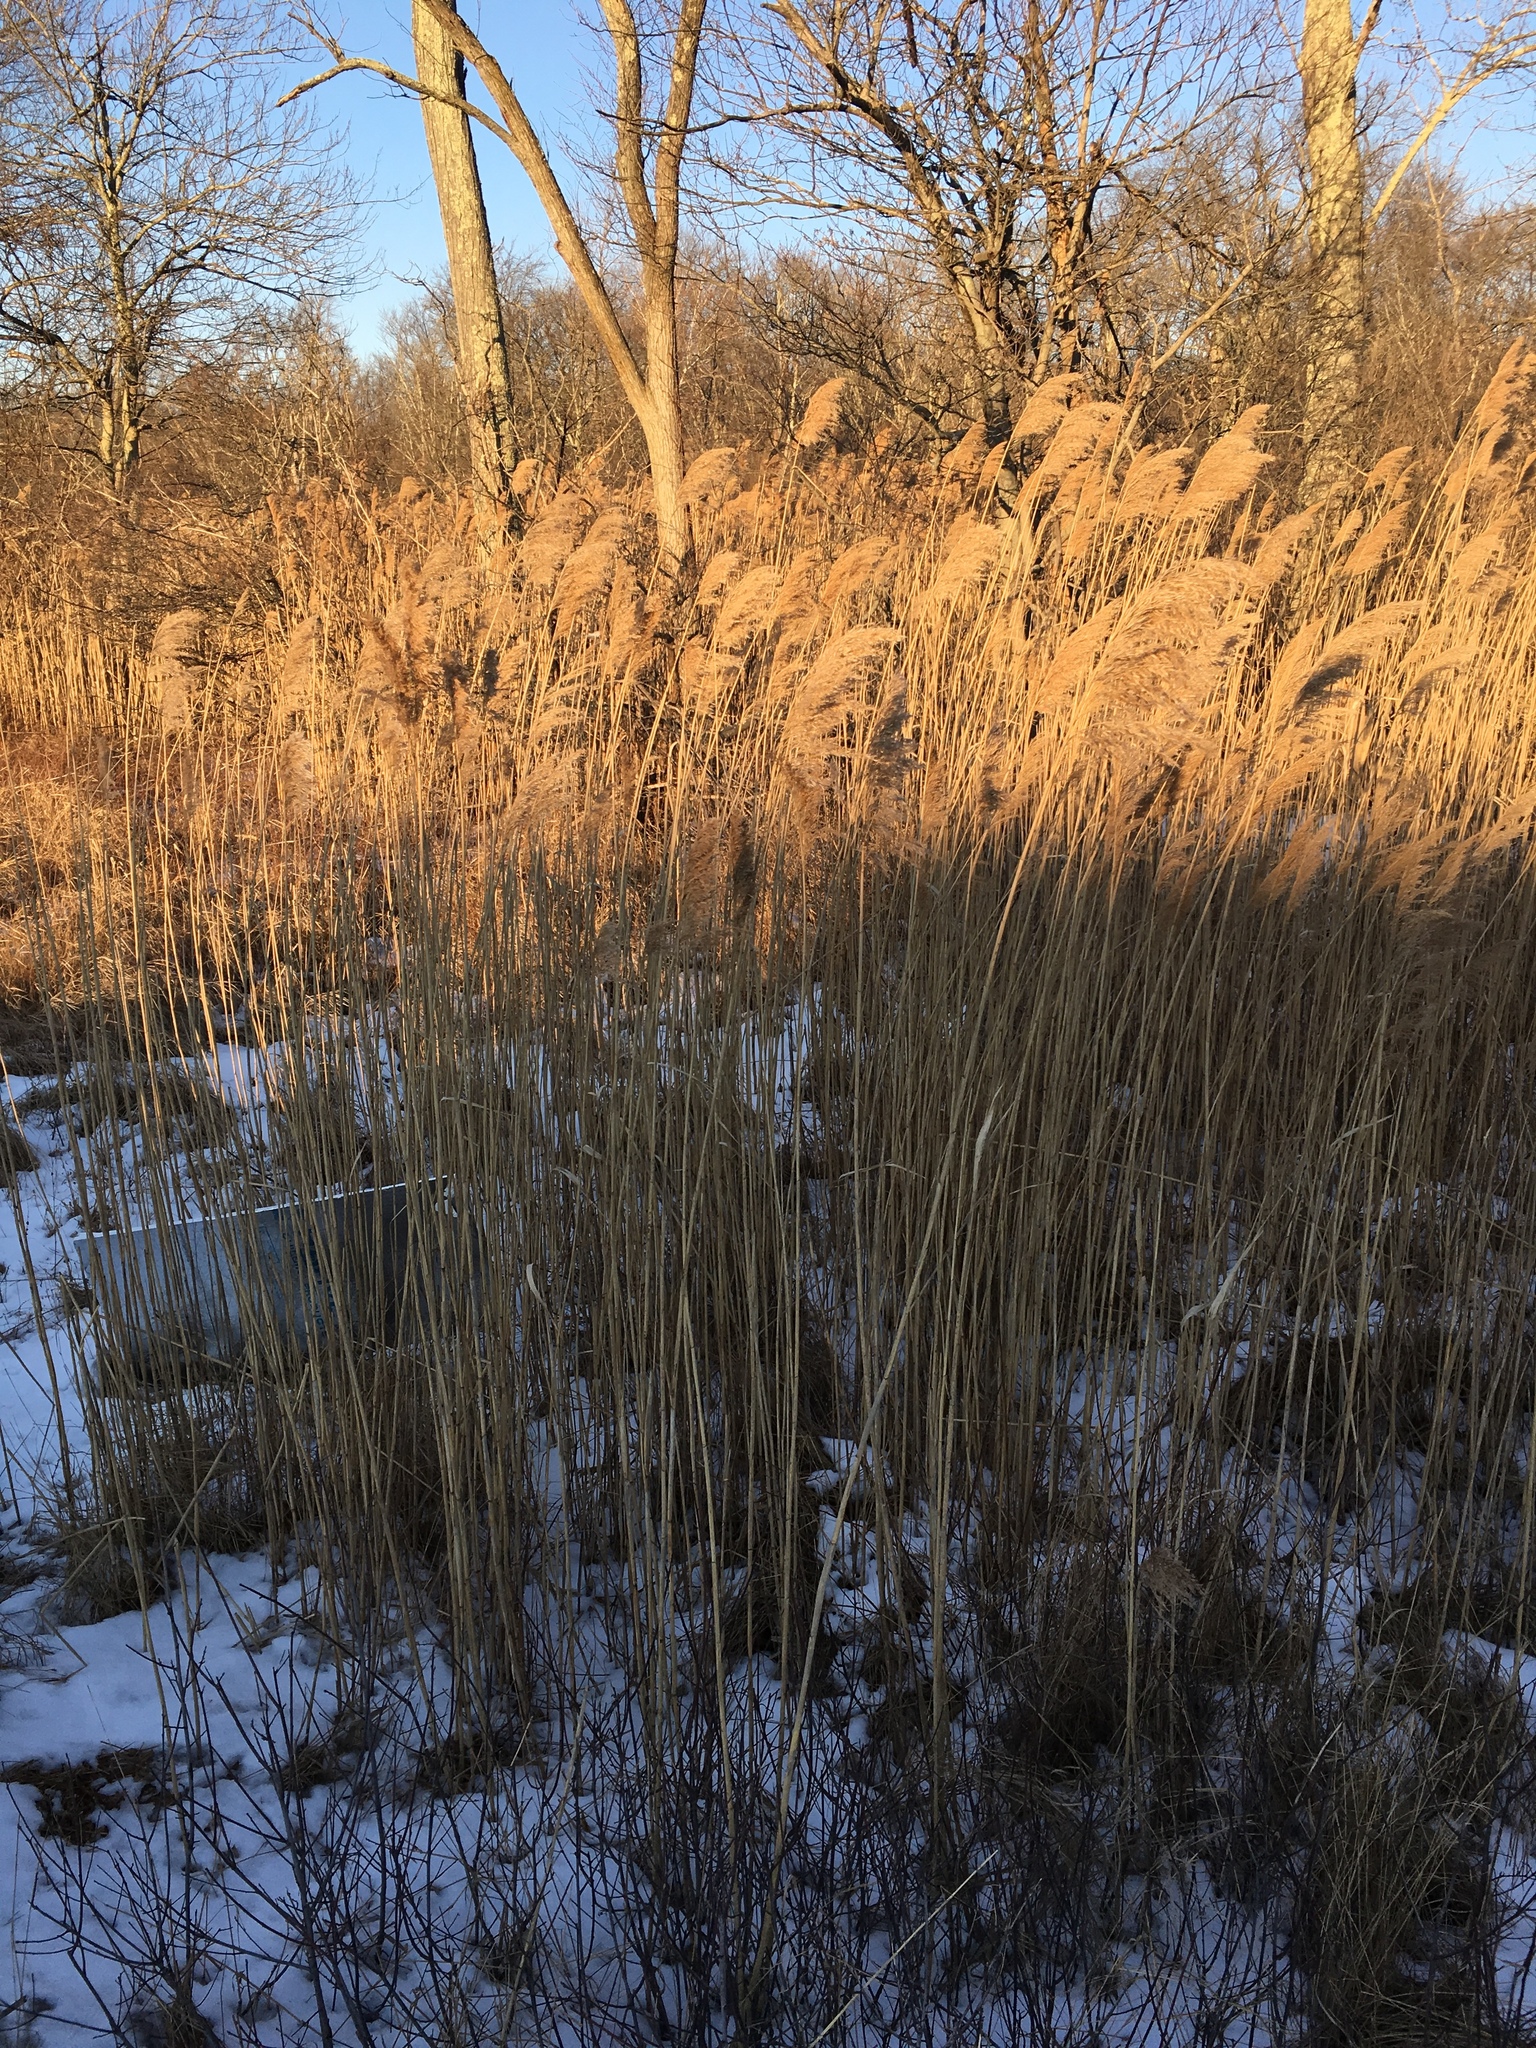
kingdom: Plantae
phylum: Tracheophyta
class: Liliopsida
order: Poales
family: Poaceae
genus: Phragmites
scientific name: Phragmites australis
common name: Common reed
